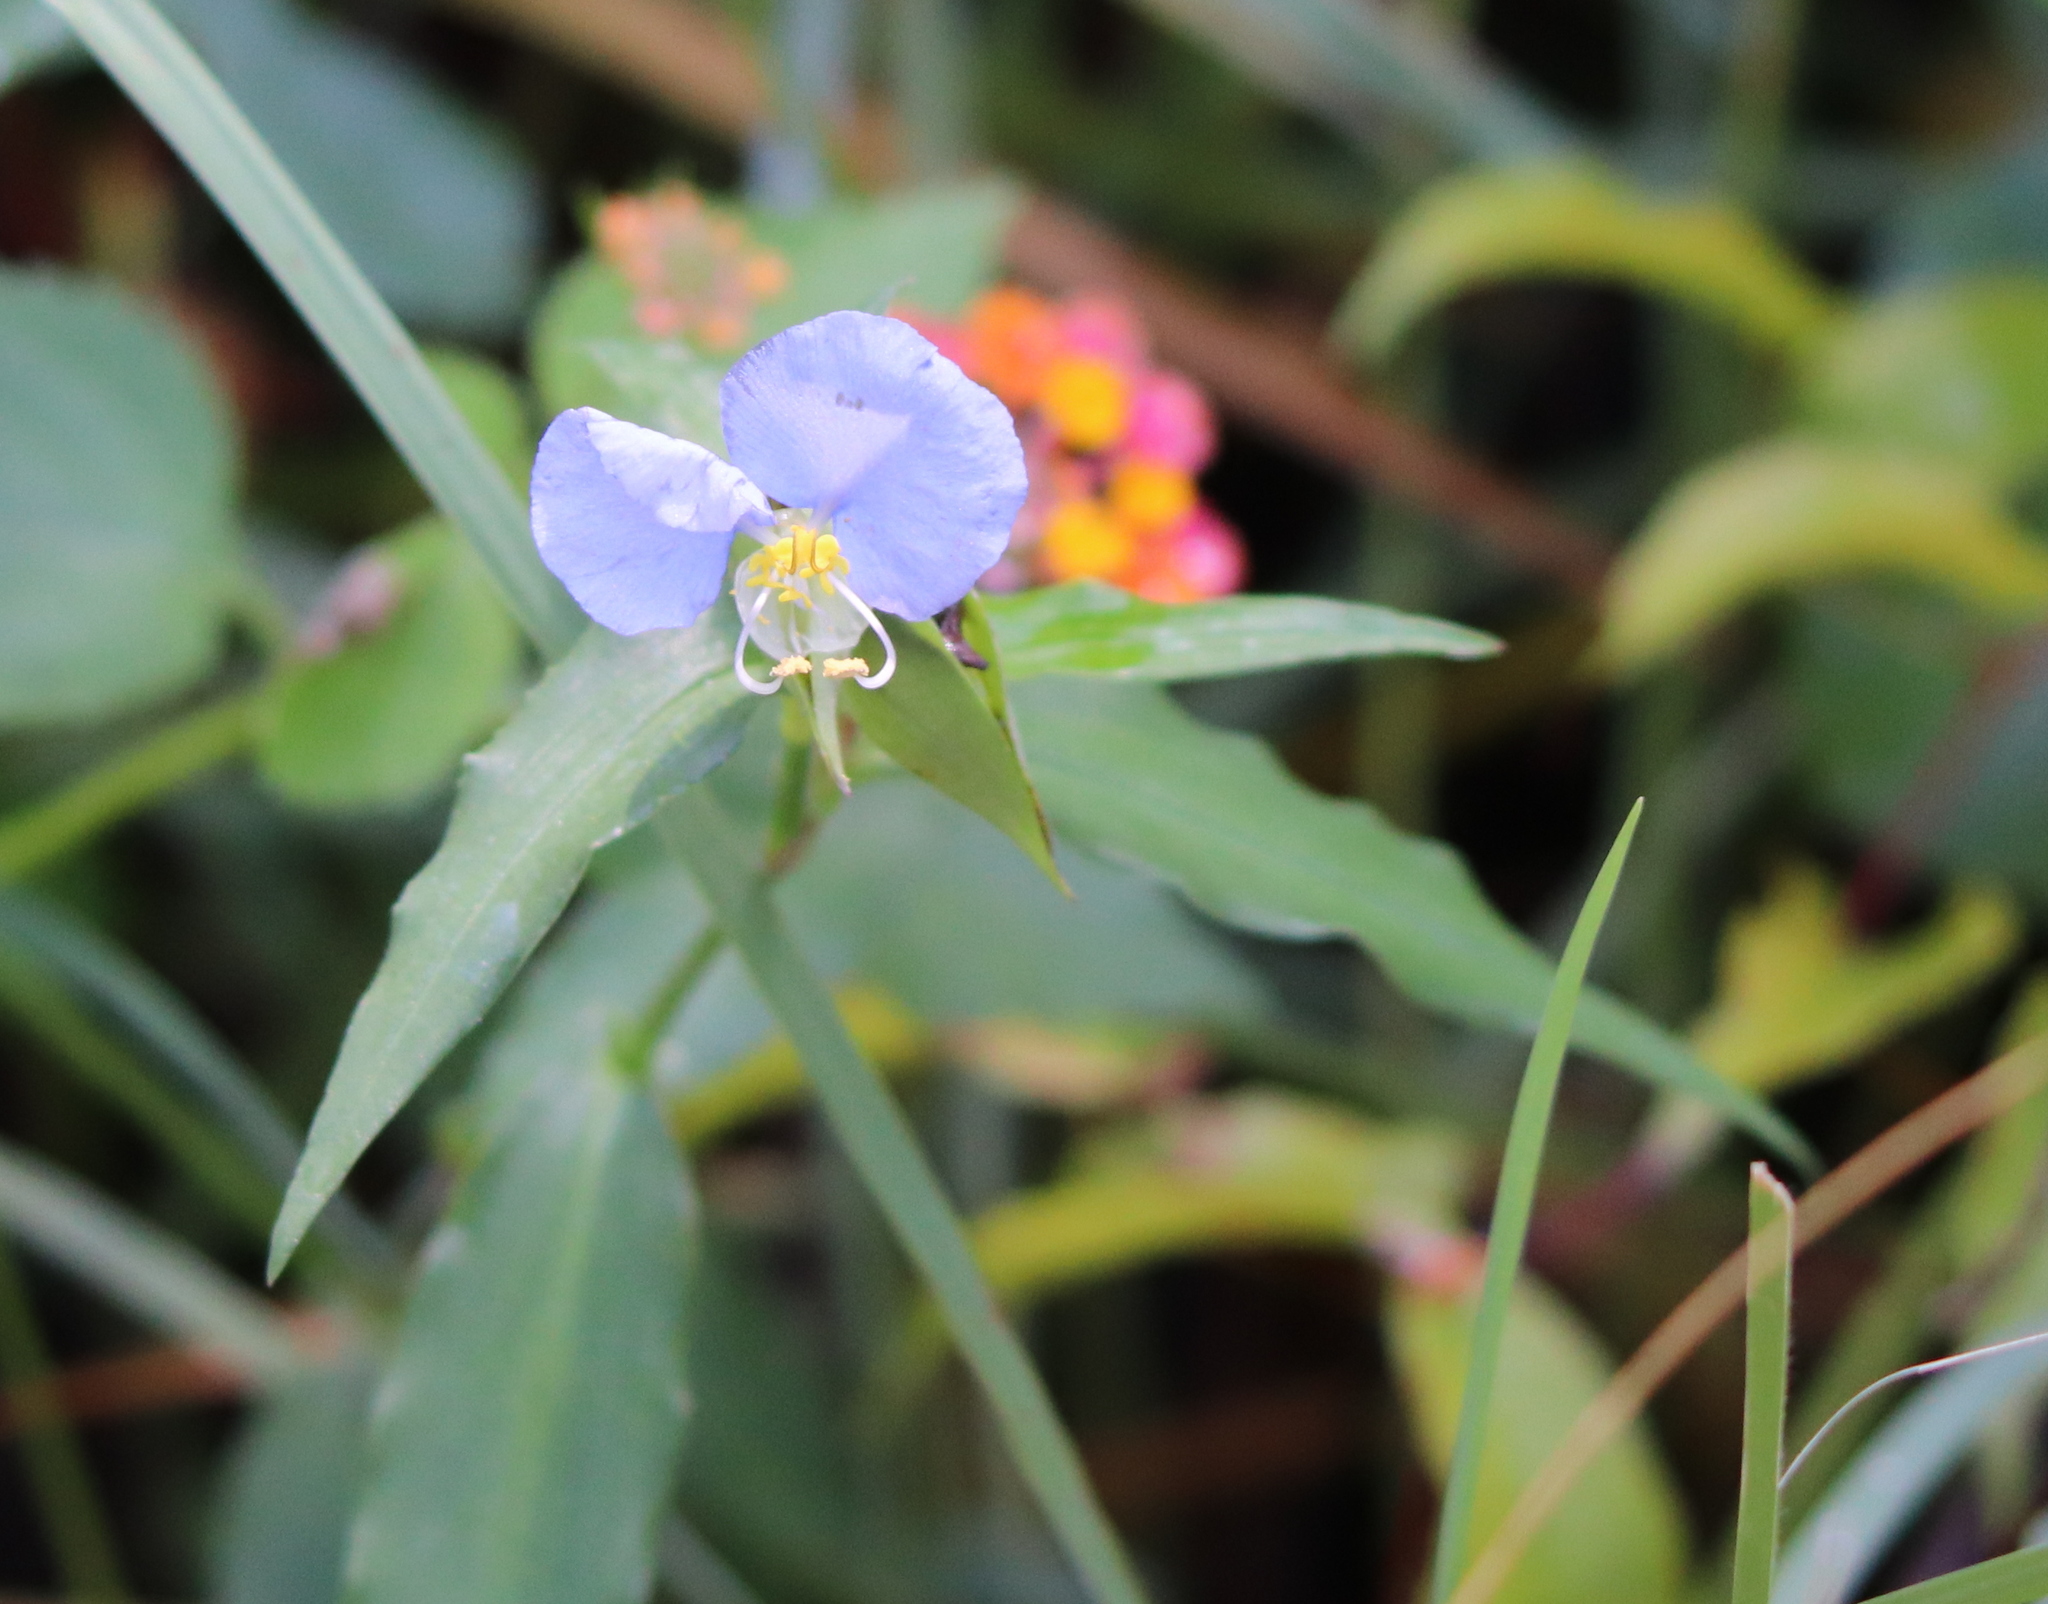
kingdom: Plantae
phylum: Tracheophyta
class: Liliopsida
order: Commelinales
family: Commelinaceae
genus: Commelina
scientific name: Commelina erecta
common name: Blousel blommetjie
